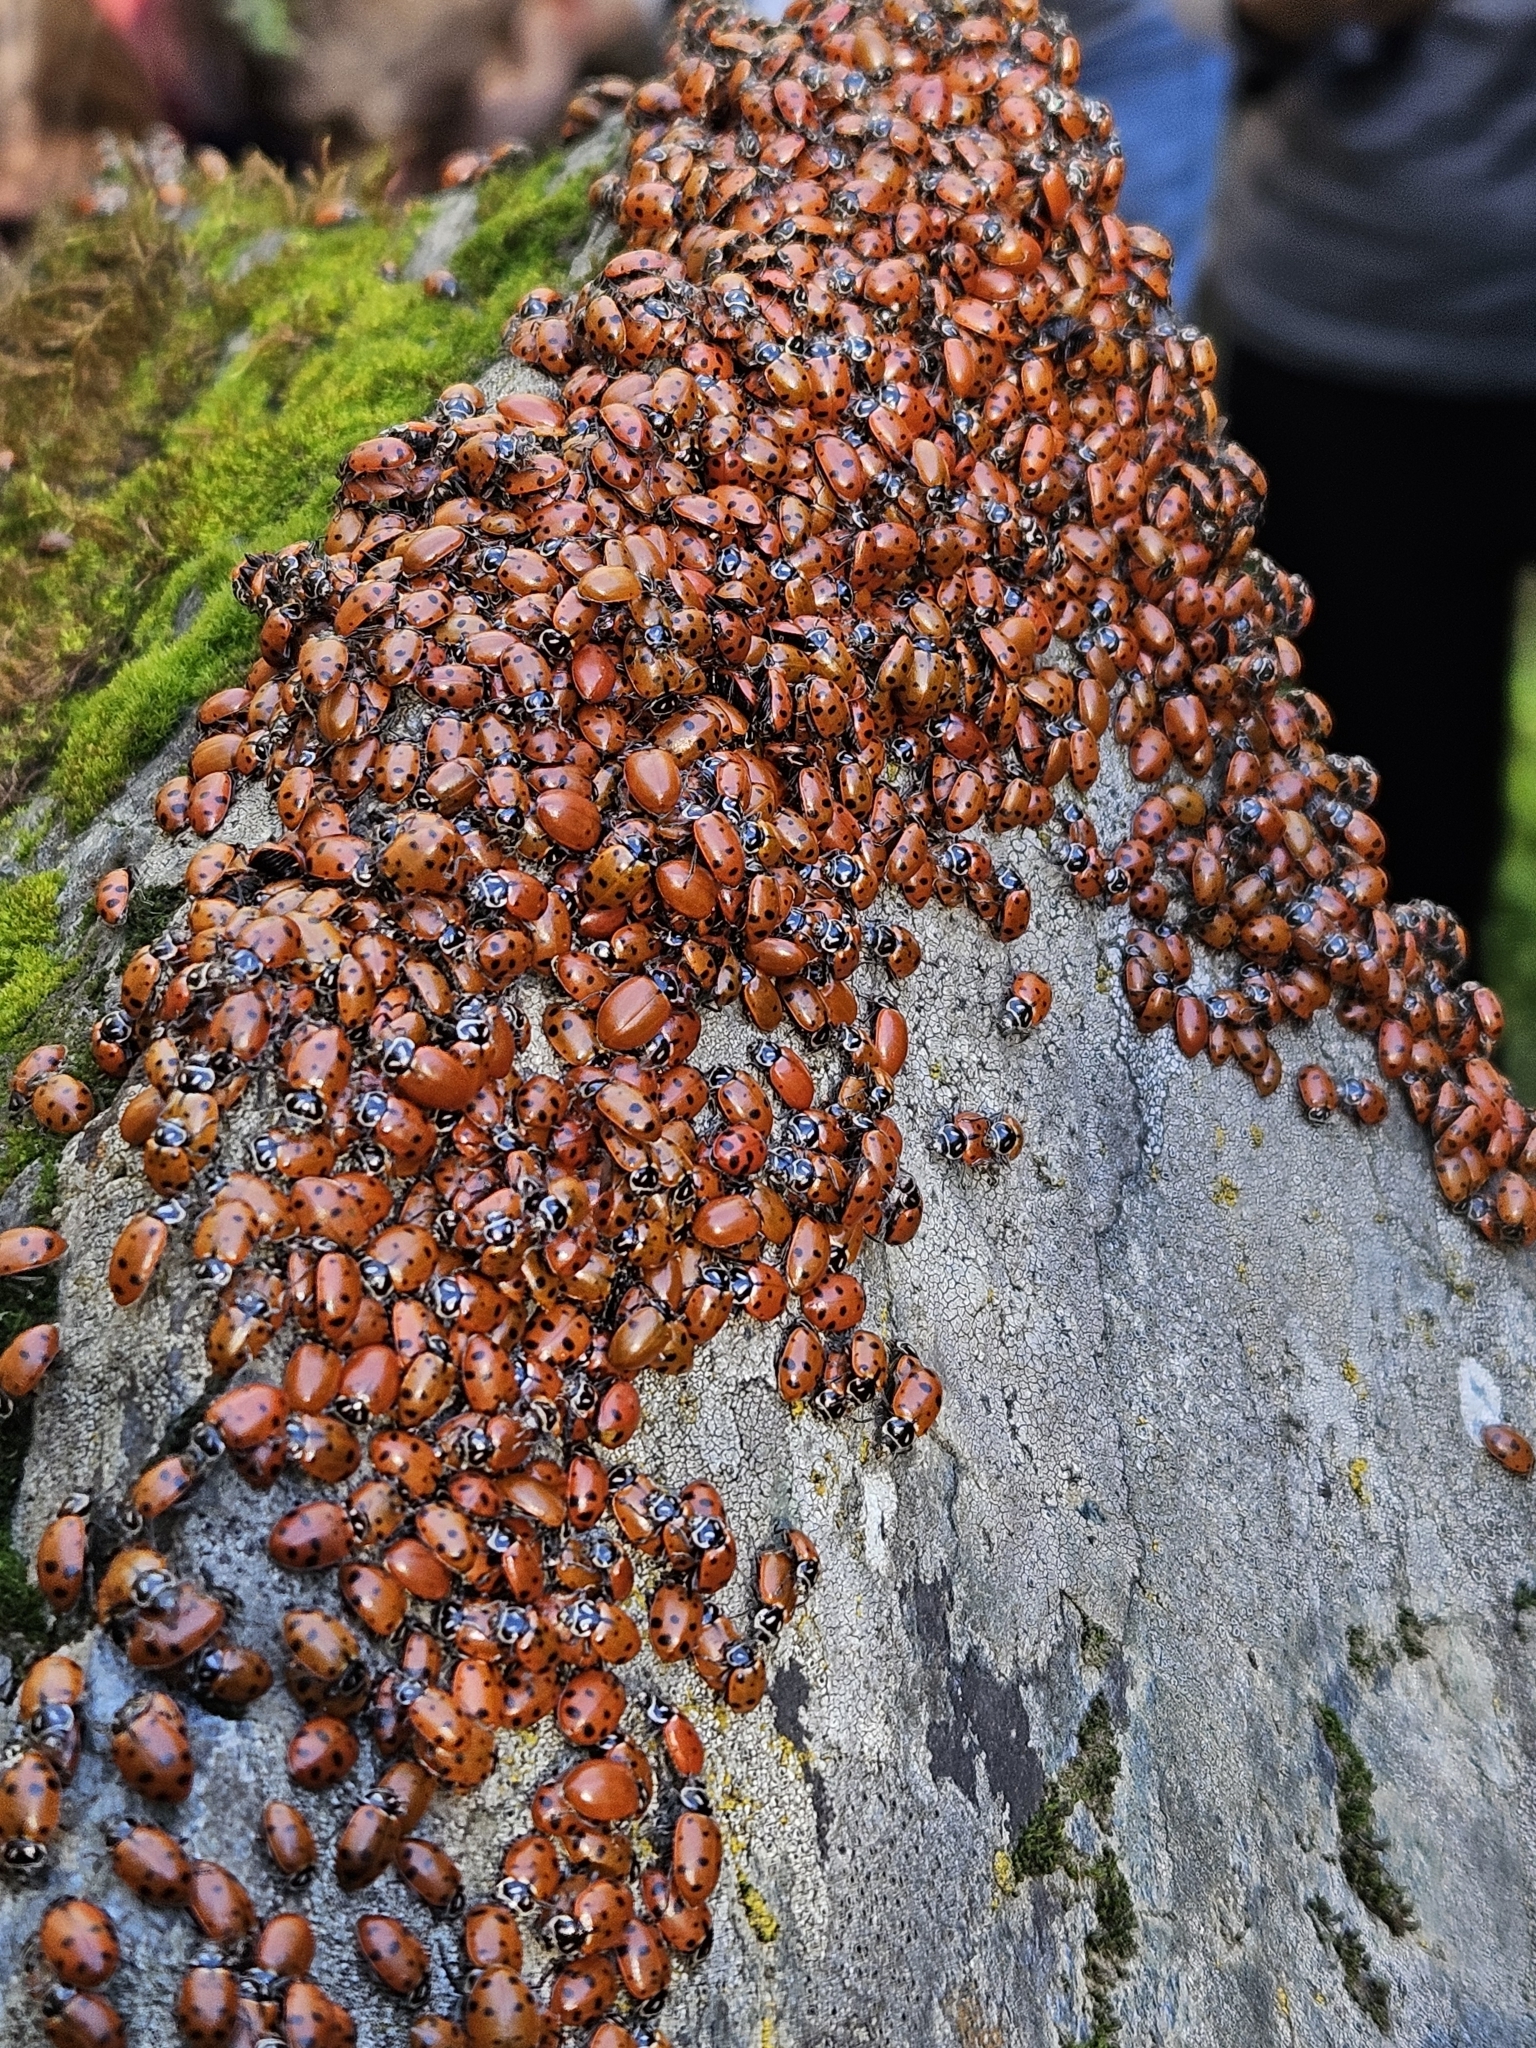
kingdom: Animalia
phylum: Arthropoda
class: Insecta
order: Coleoptera
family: Coccinellidae
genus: Hippodamia
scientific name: Hippodamia convergens
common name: Convergent lady beetle
